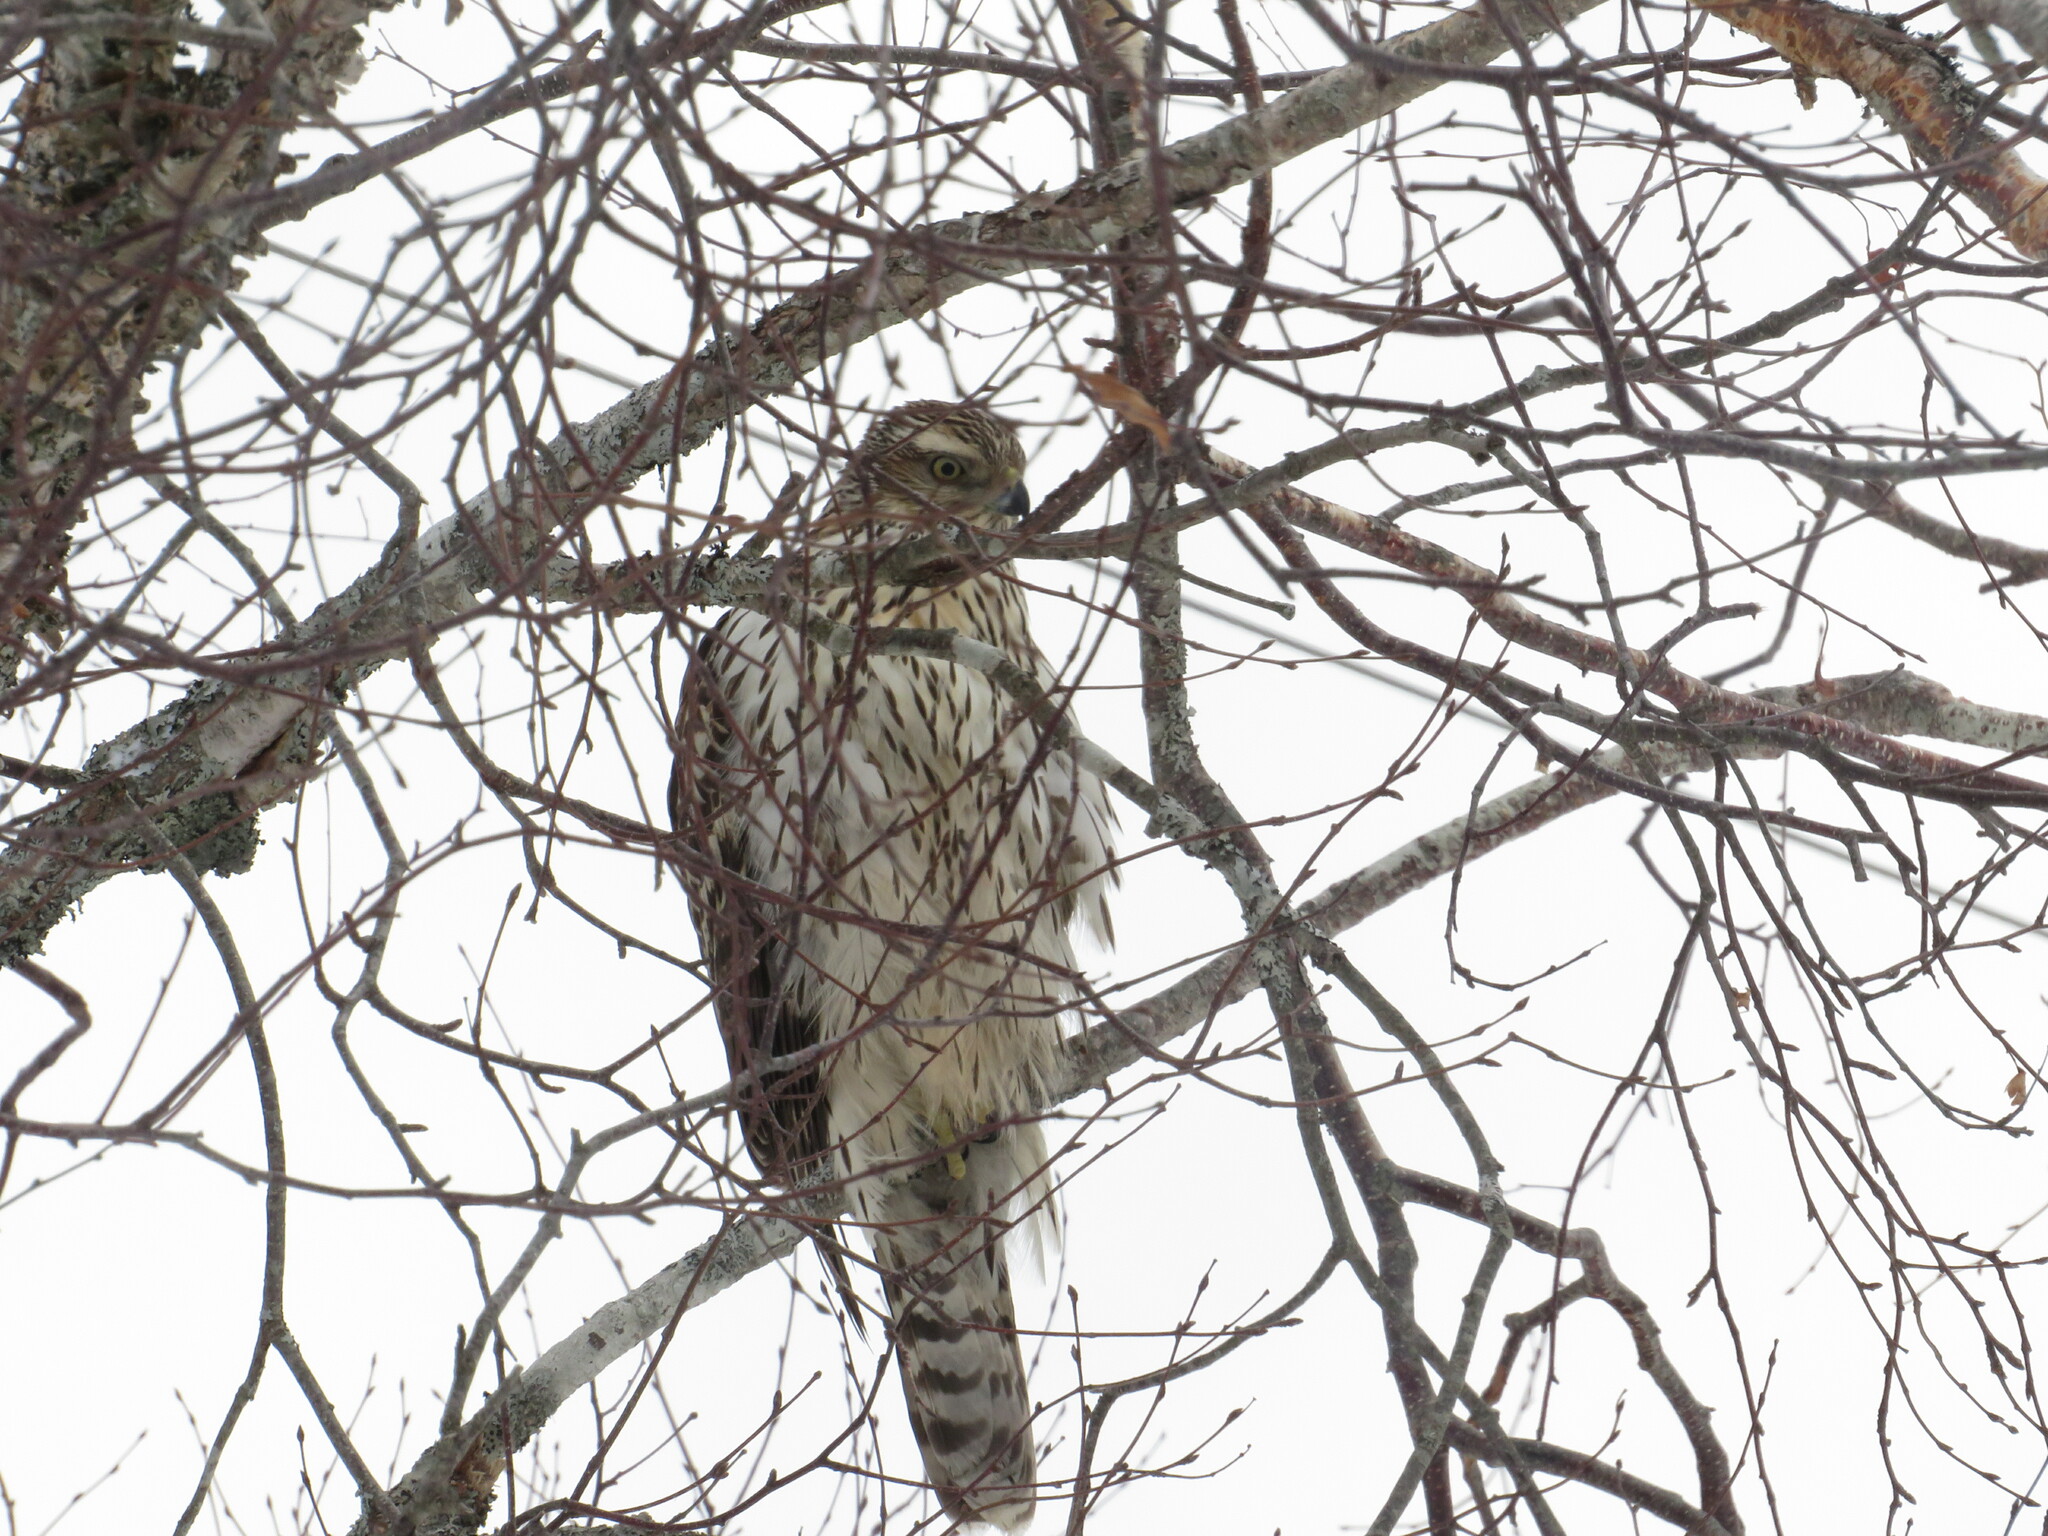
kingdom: Animalia
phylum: Chordata
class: Aves
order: Accipitriformes
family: Accipitridae
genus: Accipiter
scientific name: Accipiter gentilis
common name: Northern goshawk
